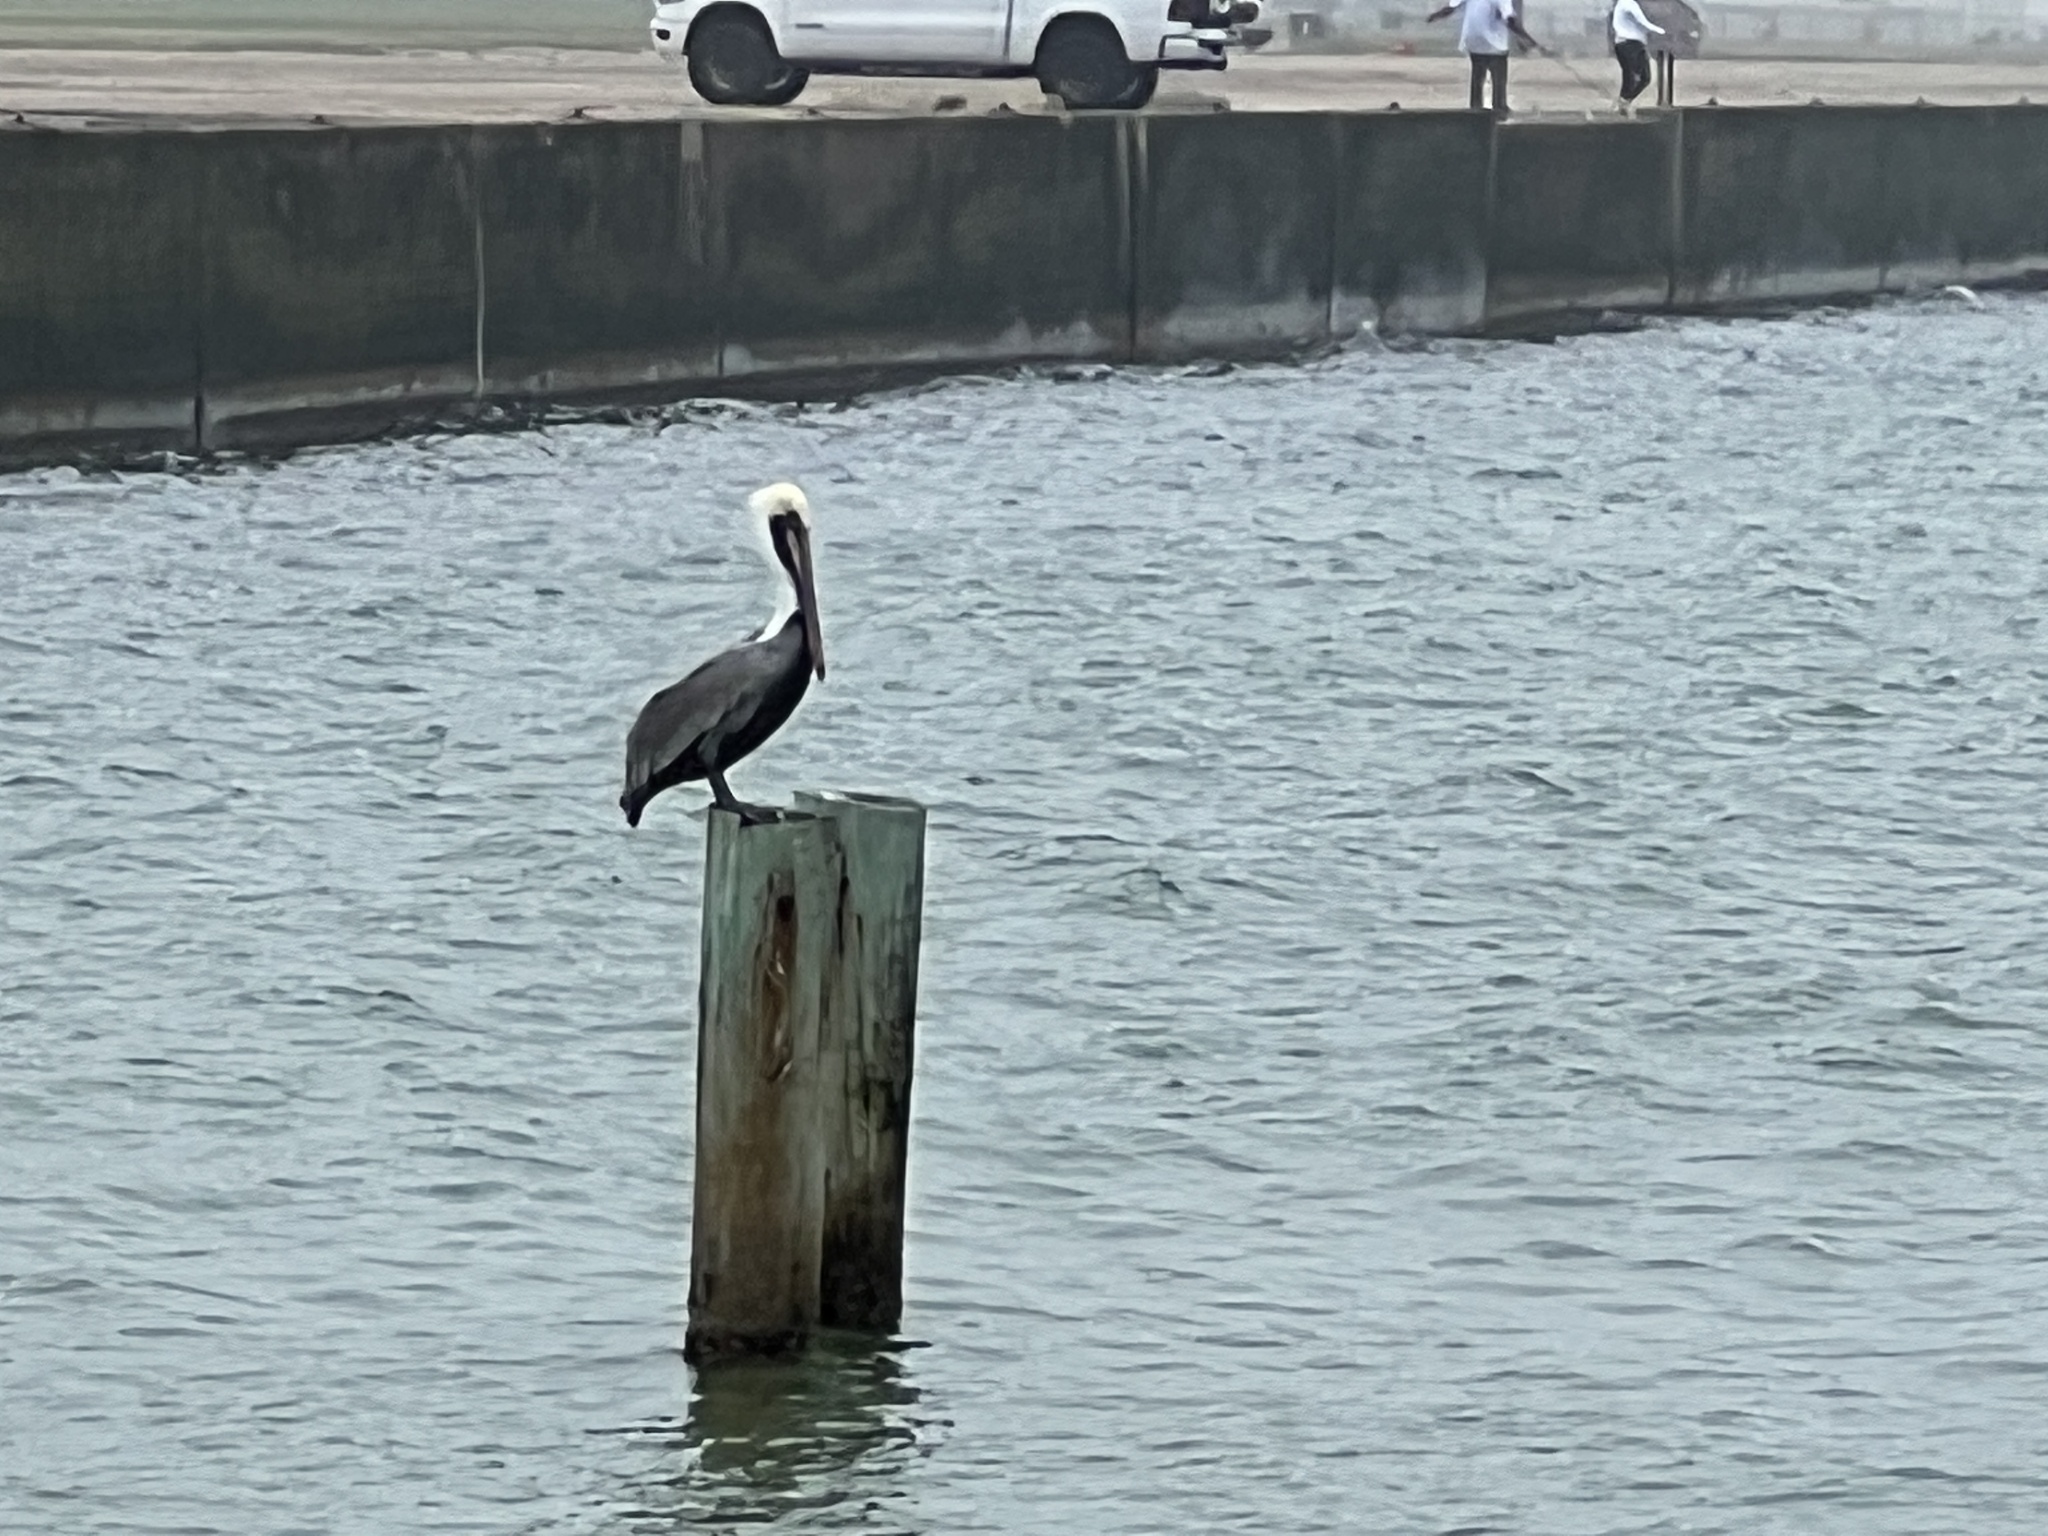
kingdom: Animalia
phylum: Chordata
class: Aves
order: Pelecaniformes
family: Pelecanidae
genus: Pelecanus
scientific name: Pelecanus occidentalis
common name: Brown pelican
